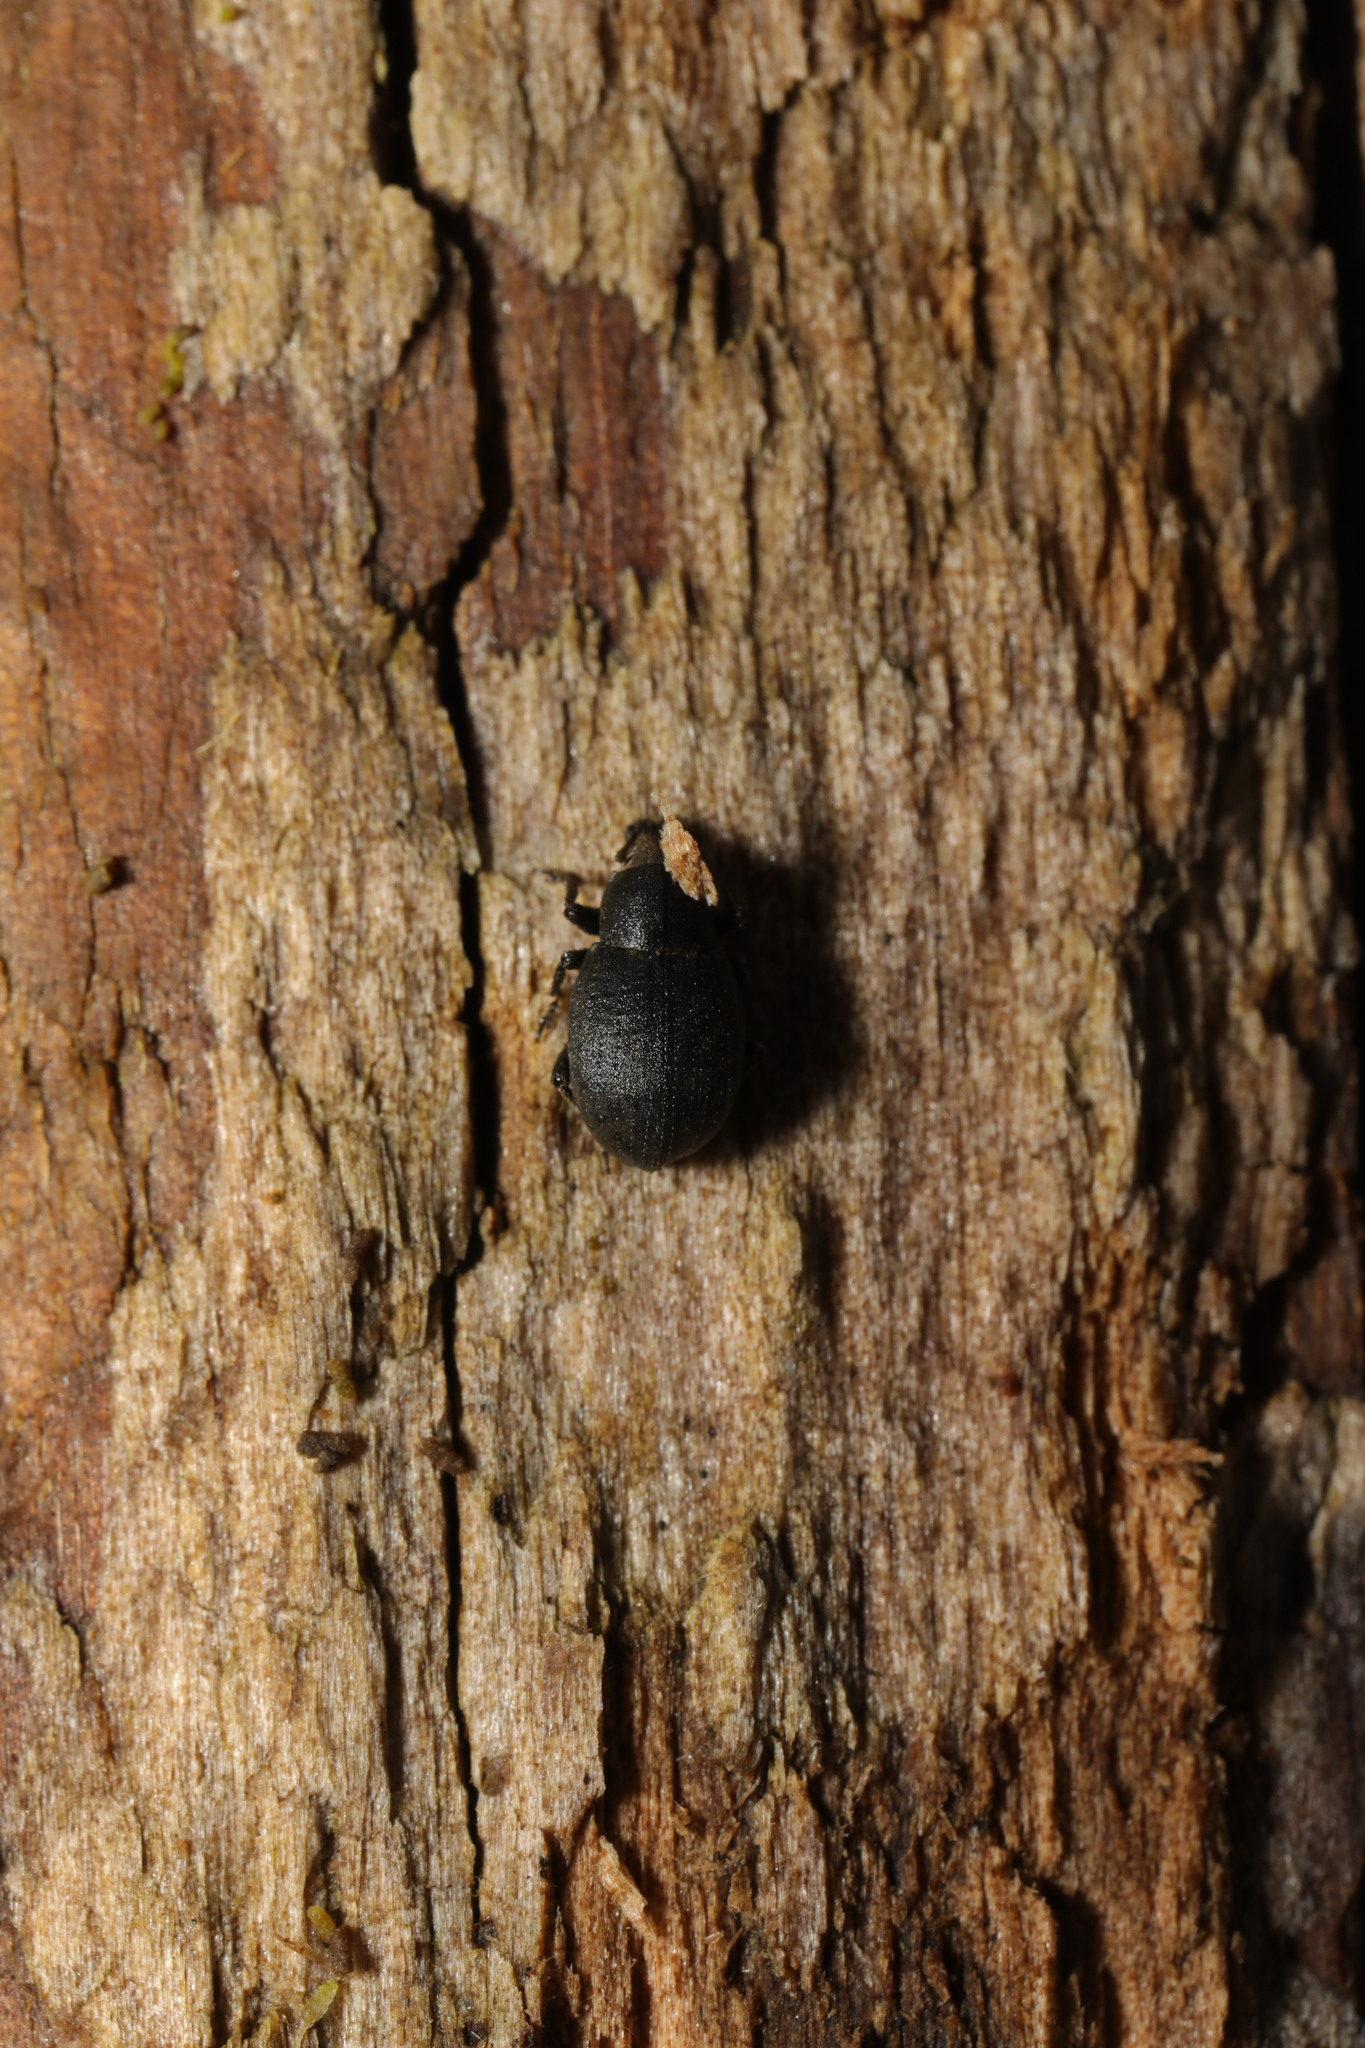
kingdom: Animalia
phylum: Arthropoda
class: Insecta
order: Coleoptera
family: Curculionidae
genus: Tropiphorus
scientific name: Tropiphorus
